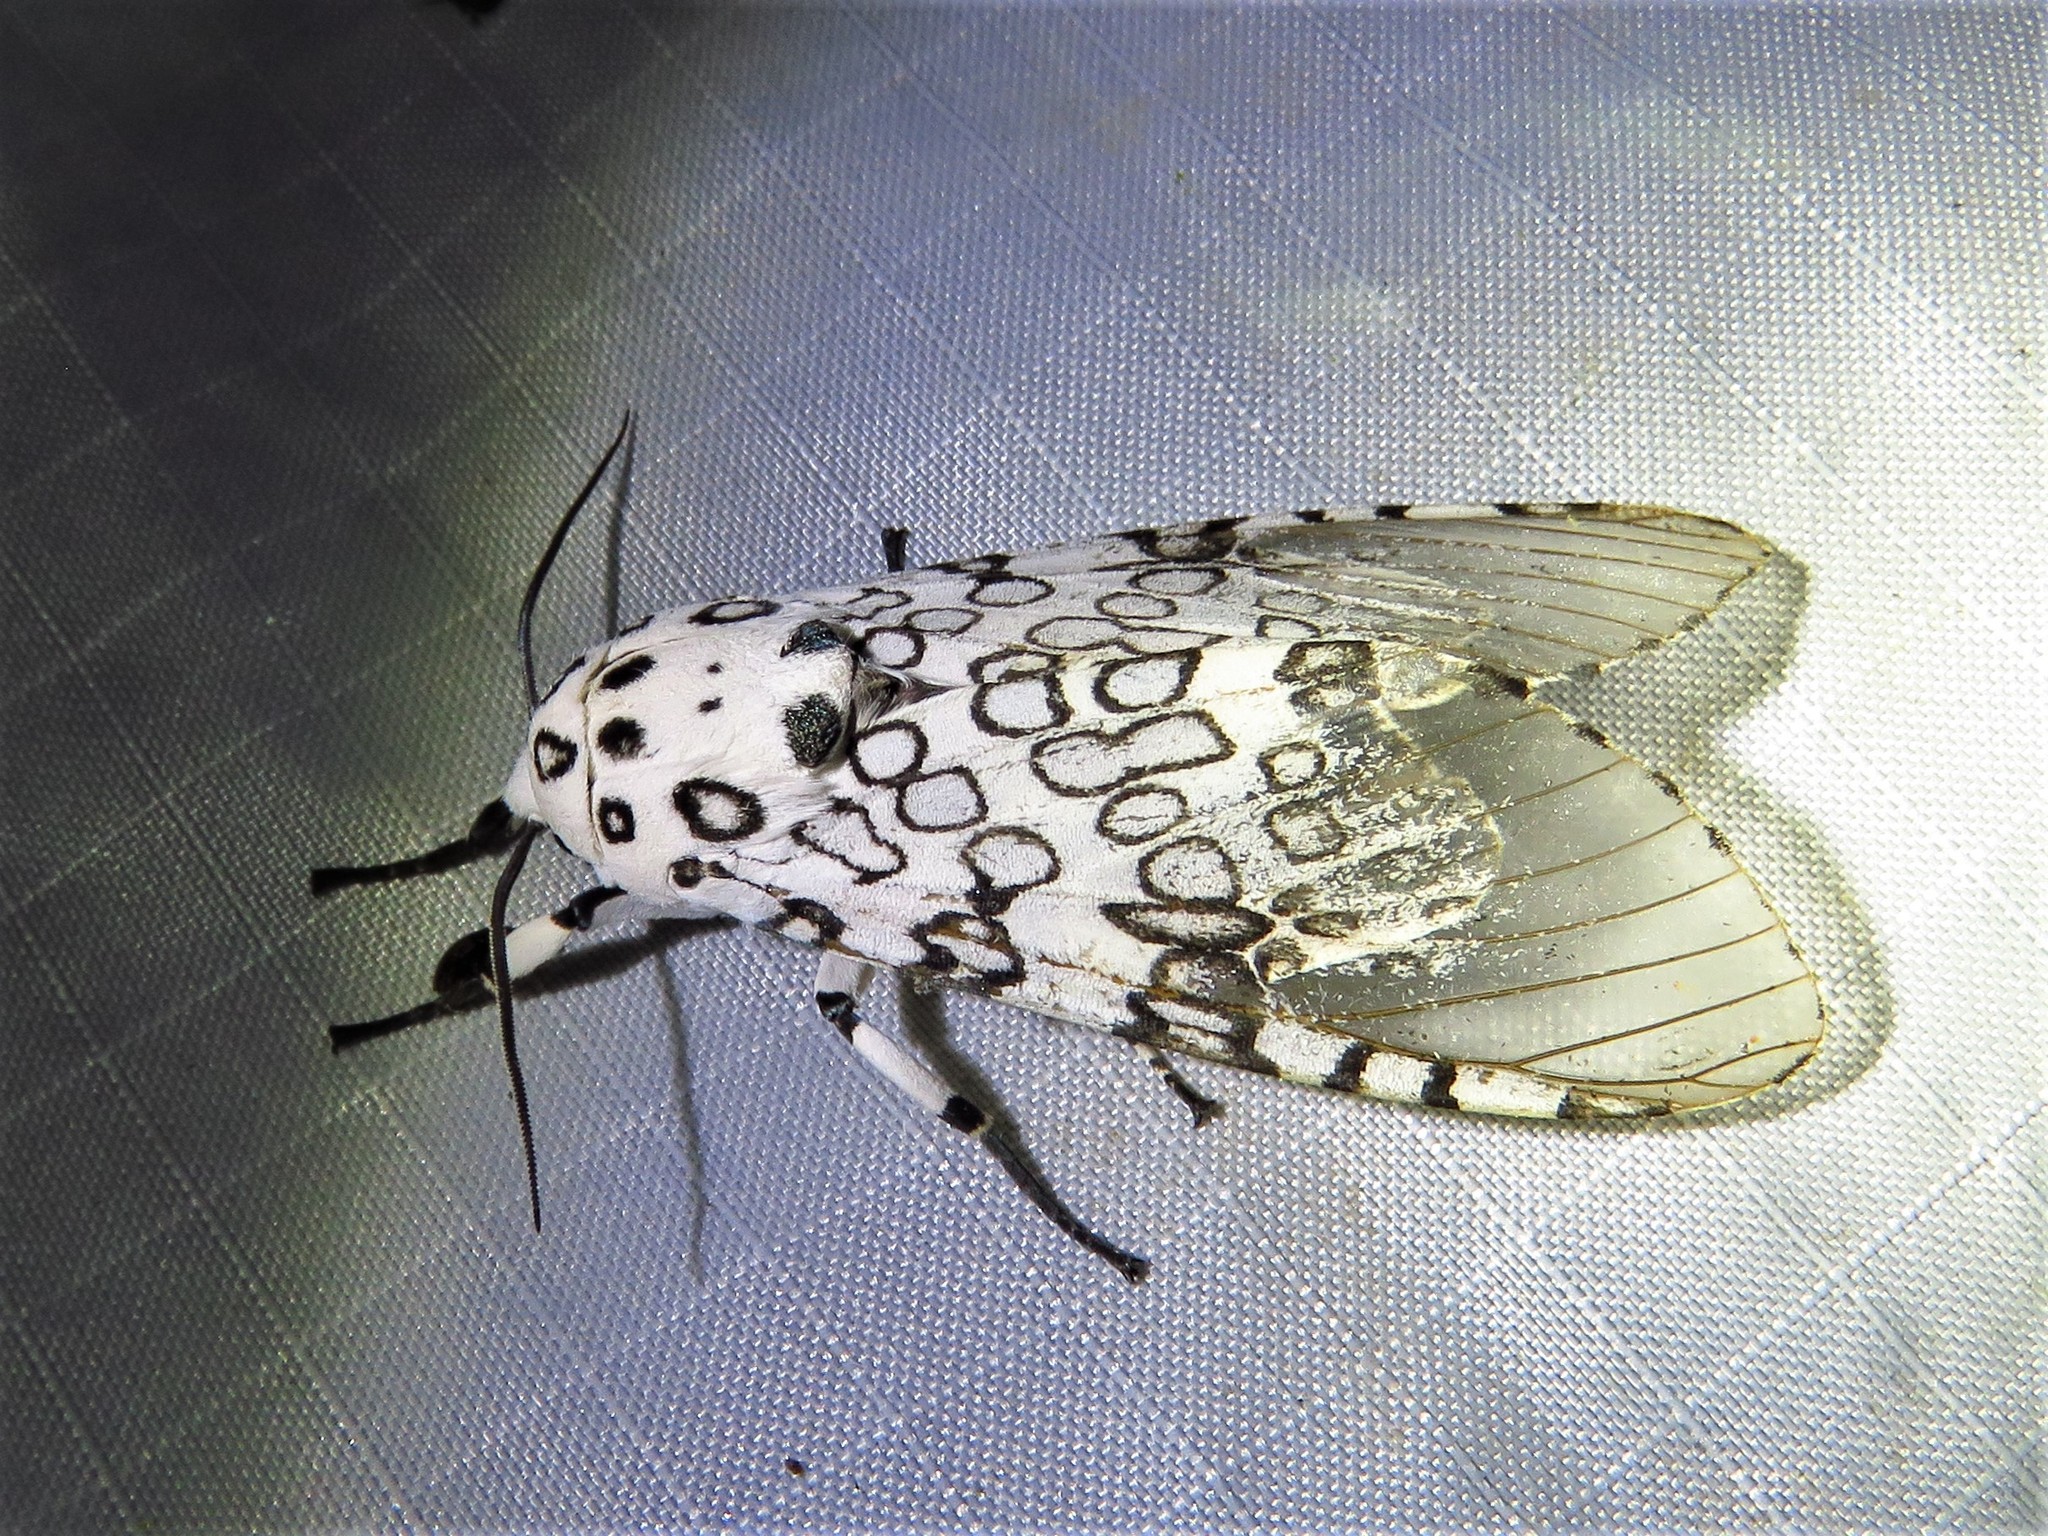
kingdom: Animalia
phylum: Arthropoda
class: Insecta
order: Lepidoptera
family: Erebidae
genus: Hypercompe
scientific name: Hypercompe scribonia
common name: Giant leopard moth
